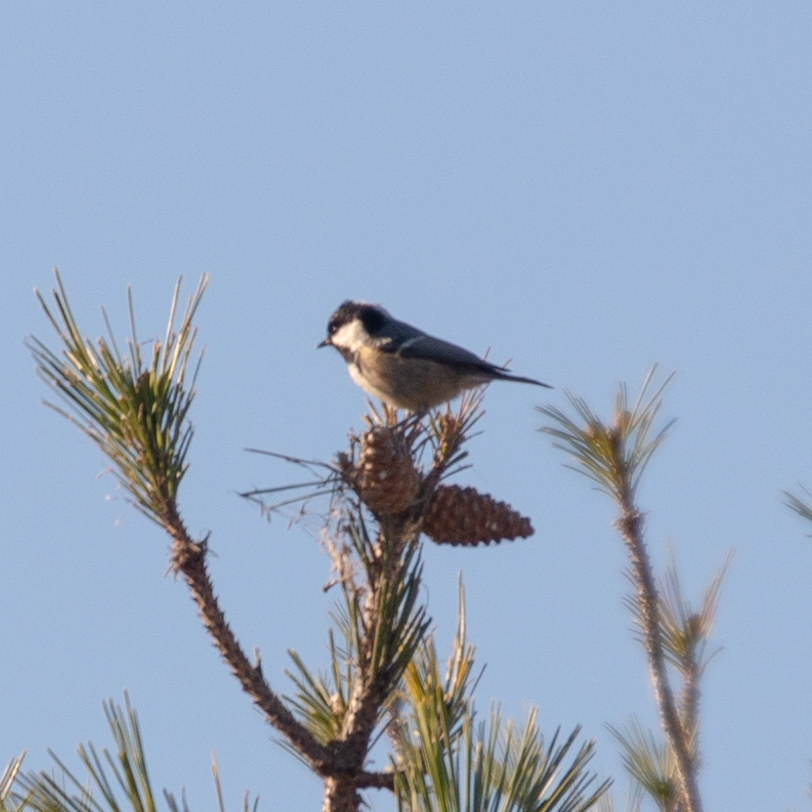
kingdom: Animalia
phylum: Chordata
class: Aves
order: Passeriformes
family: Paridae
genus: Periparus
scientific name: Periparus ater
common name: Coal tit
